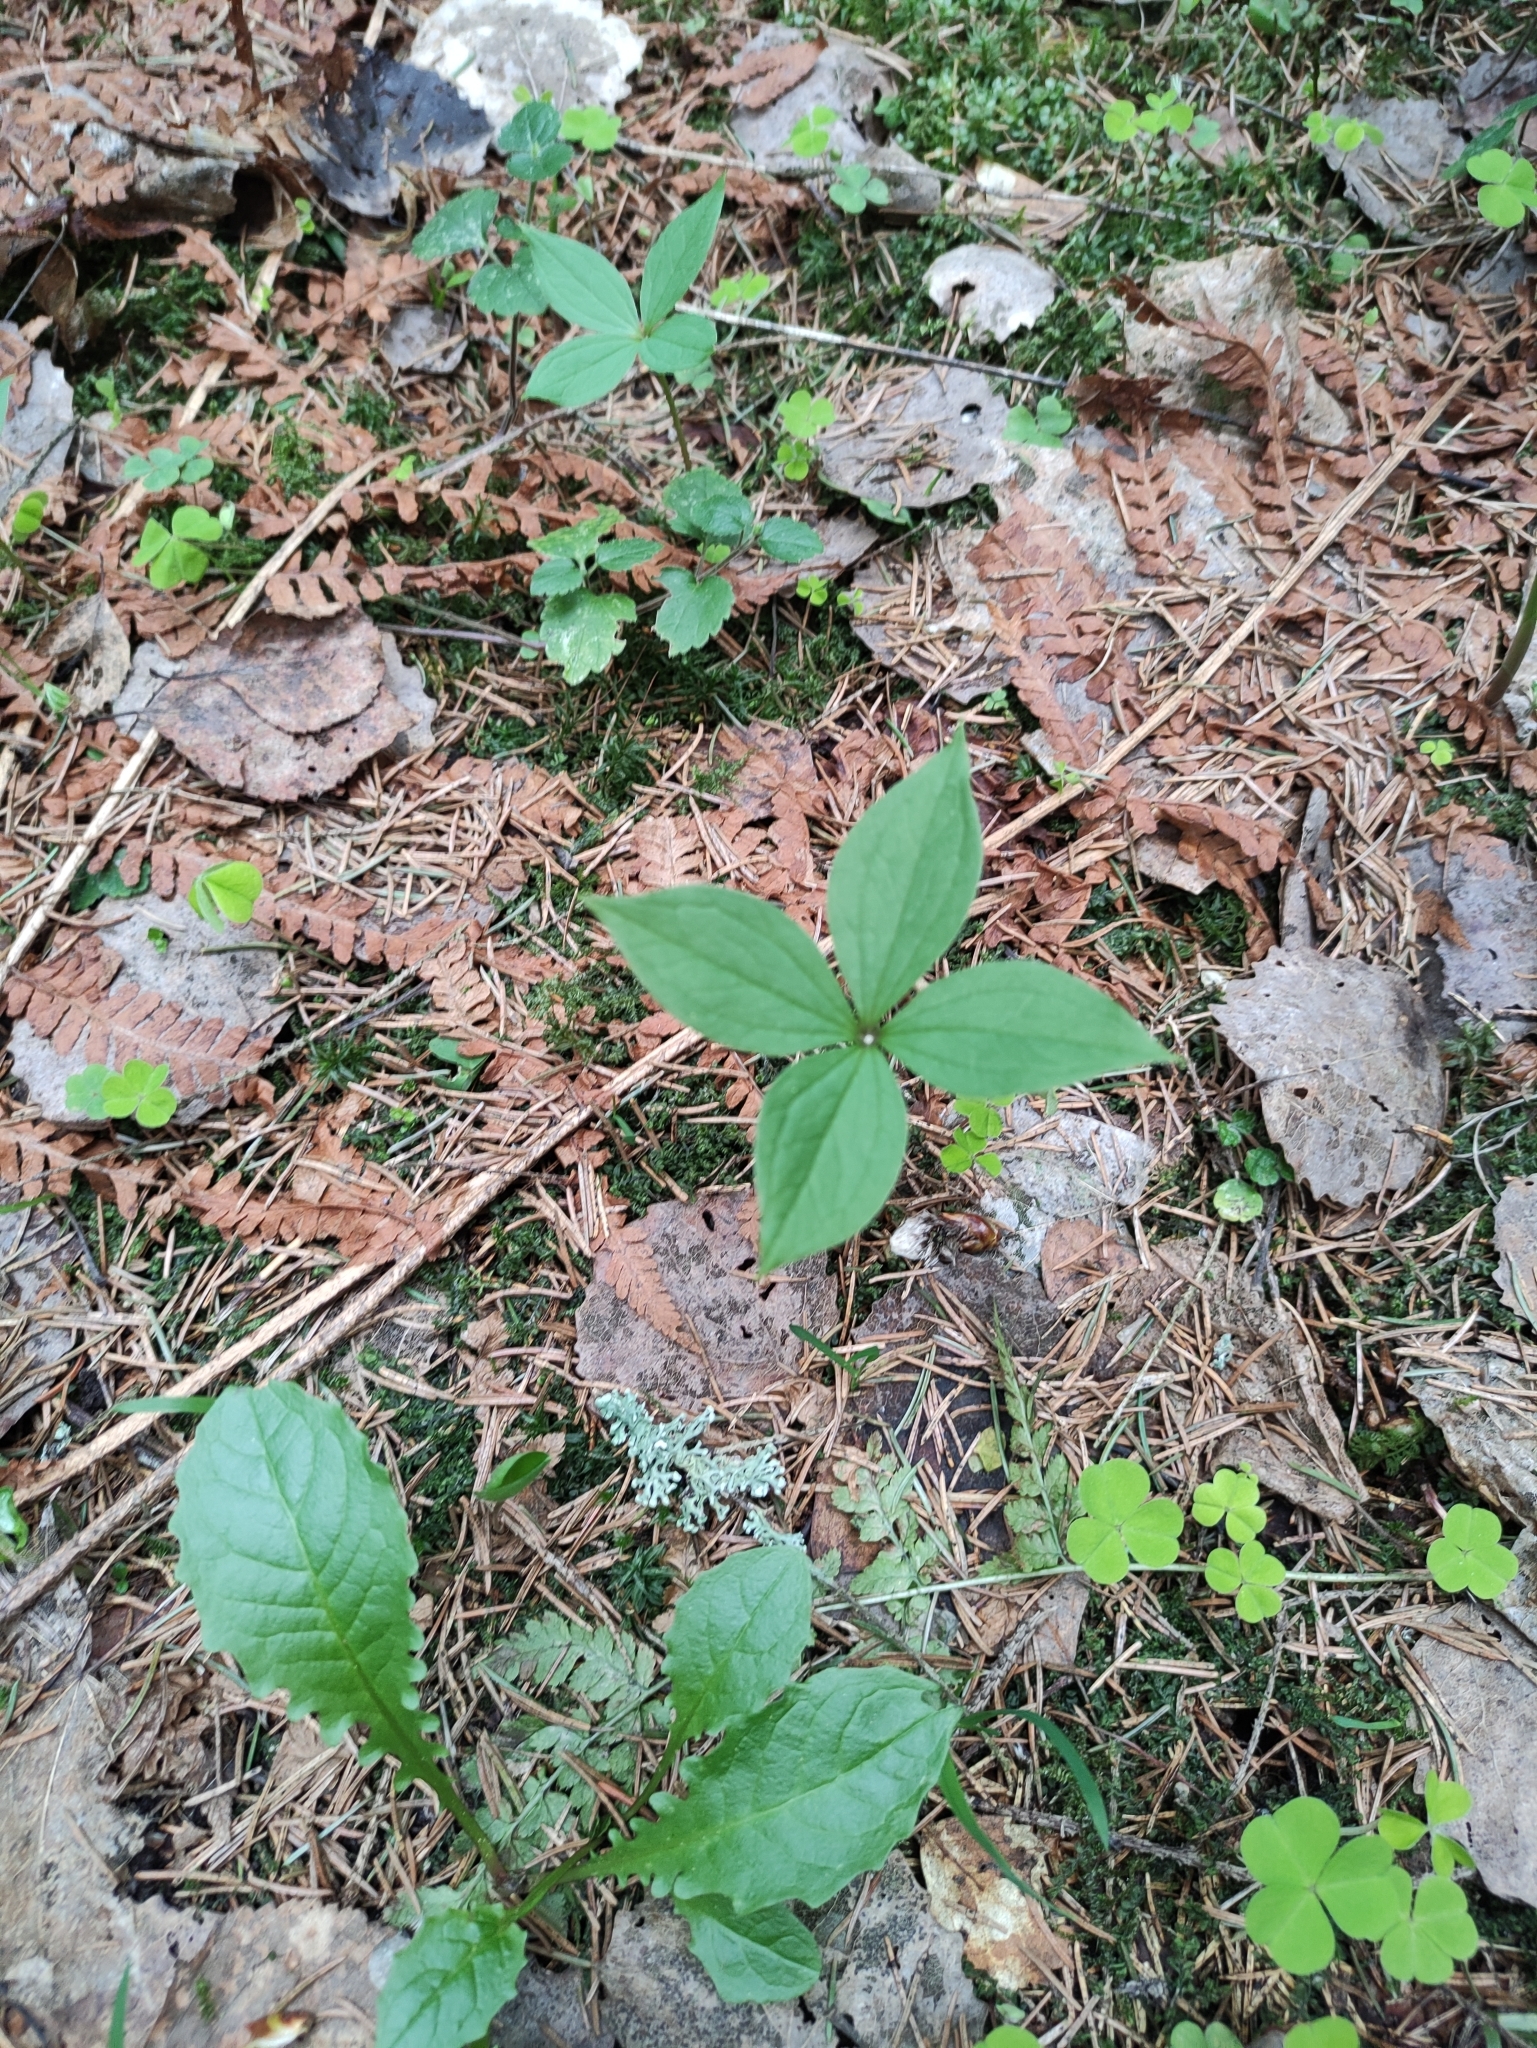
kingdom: Plantae
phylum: Tracheophyta
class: Liliopsida
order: Liliales
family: Melanthiaceae
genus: Paris
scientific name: Paris quadrifolia
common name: Herb-paris
